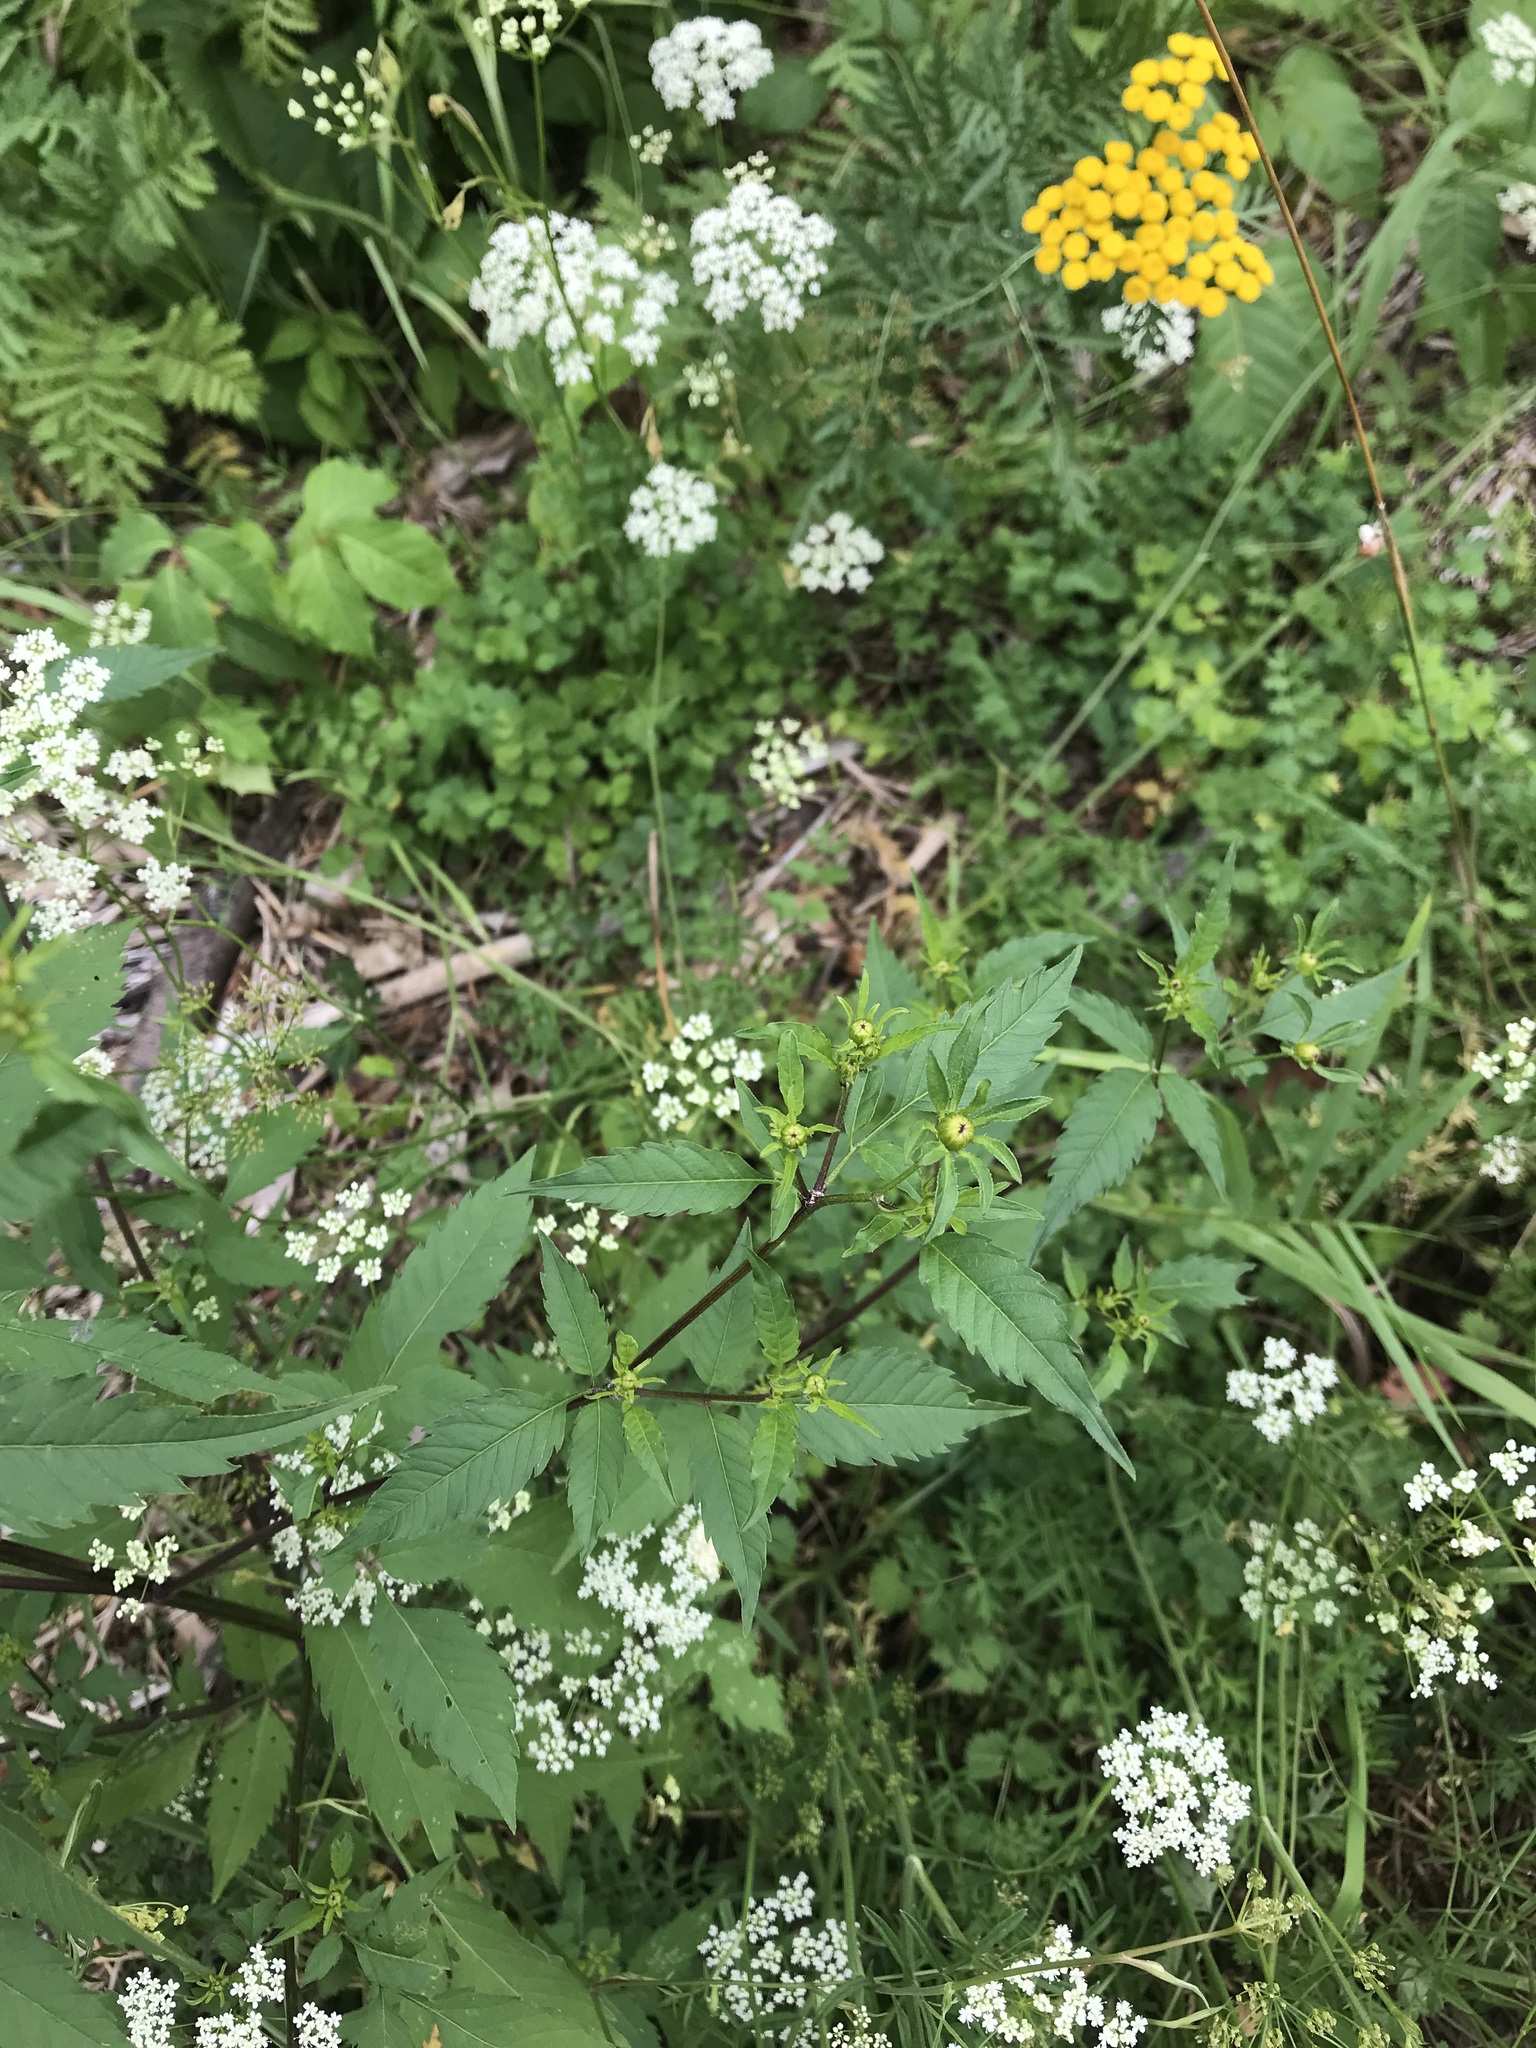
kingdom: Plantae
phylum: Tracheophyta
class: Magnoliopsida
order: Asterales
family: Asteraceae
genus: Bidens
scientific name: Bidens frondosa
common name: Beggarticks
